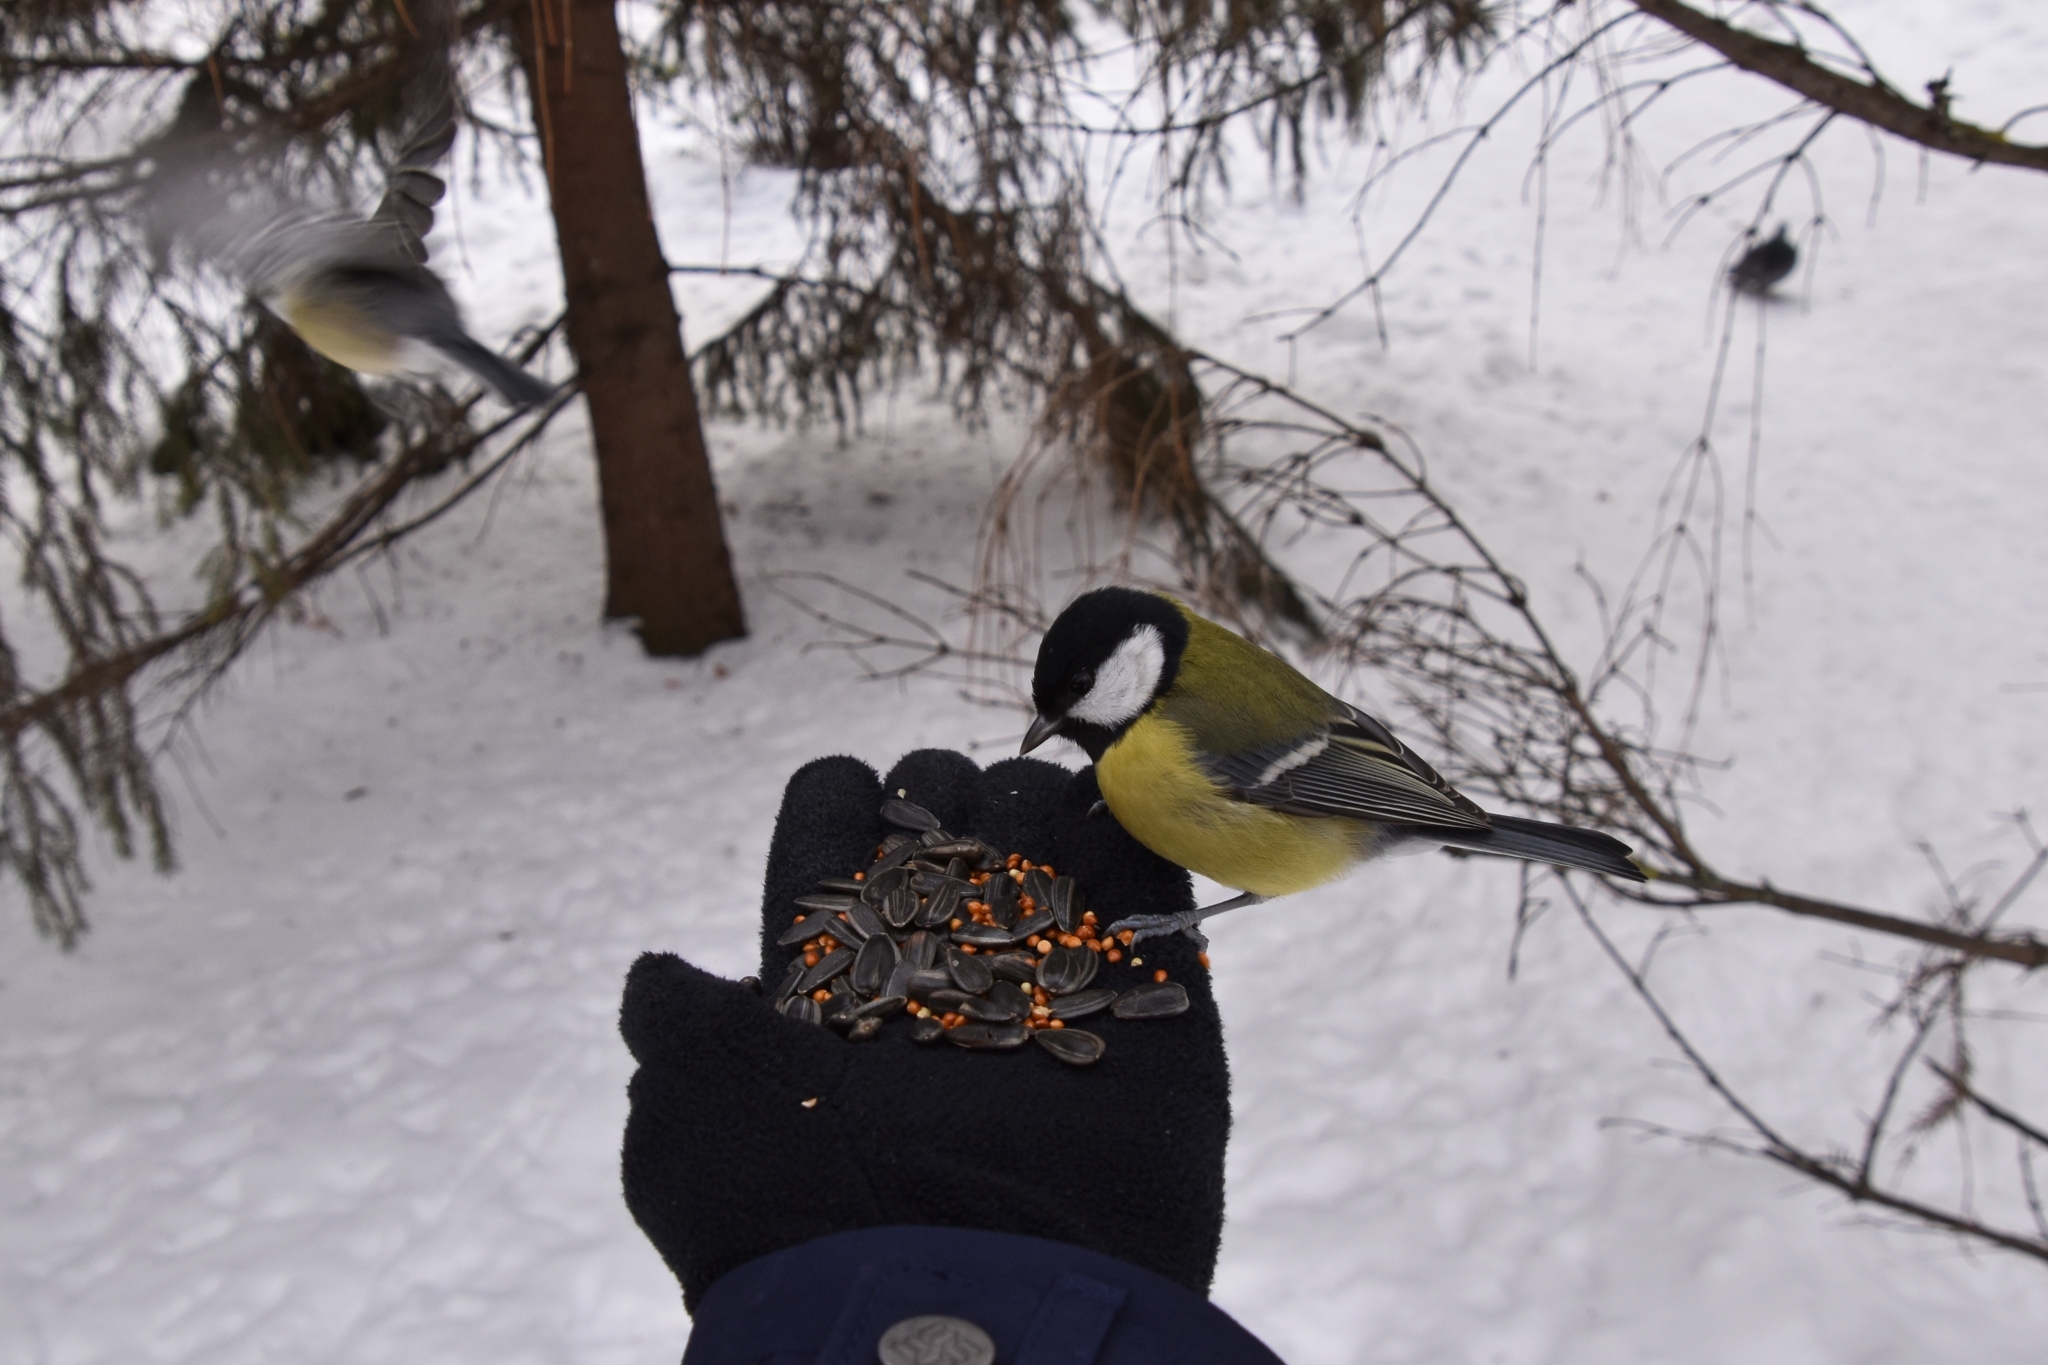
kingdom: Animalia
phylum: Chordata
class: Aves
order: Passeriformes
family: Paridae
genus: Parus
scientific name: Parus major
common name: Great tit
